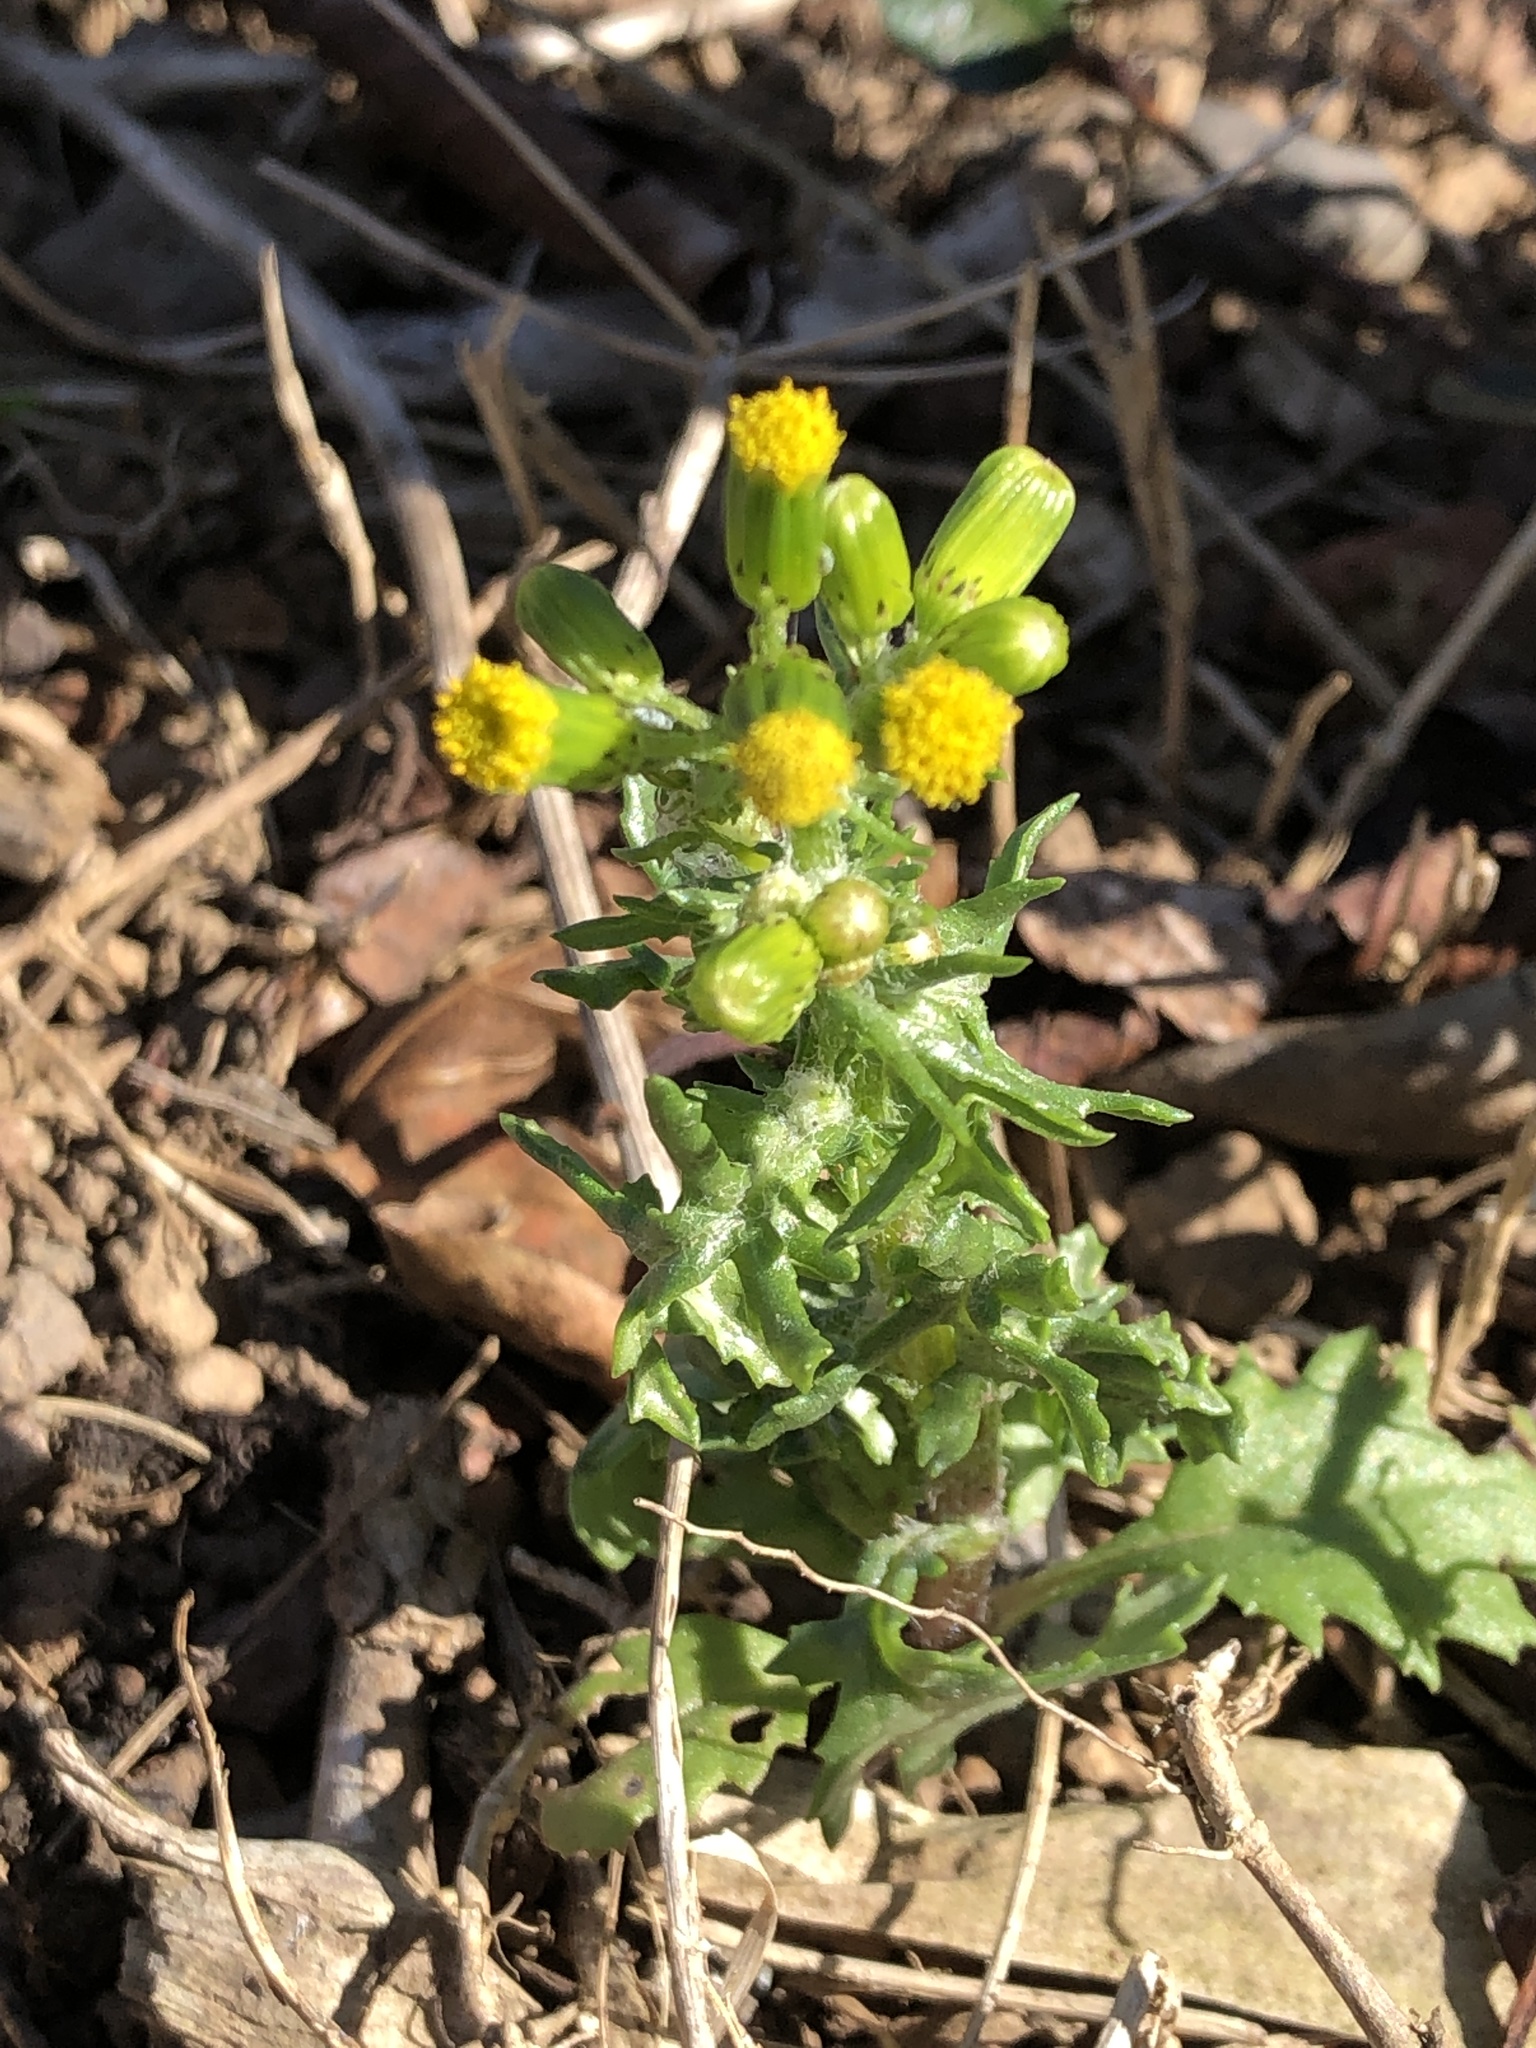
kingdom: Plantae
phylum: Tracheophyta
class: Magnoliopsida
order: Asterales
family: Asteraceae
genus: Senecio
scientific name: Senecio vulgaris
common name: Old-man-in-the-spring
